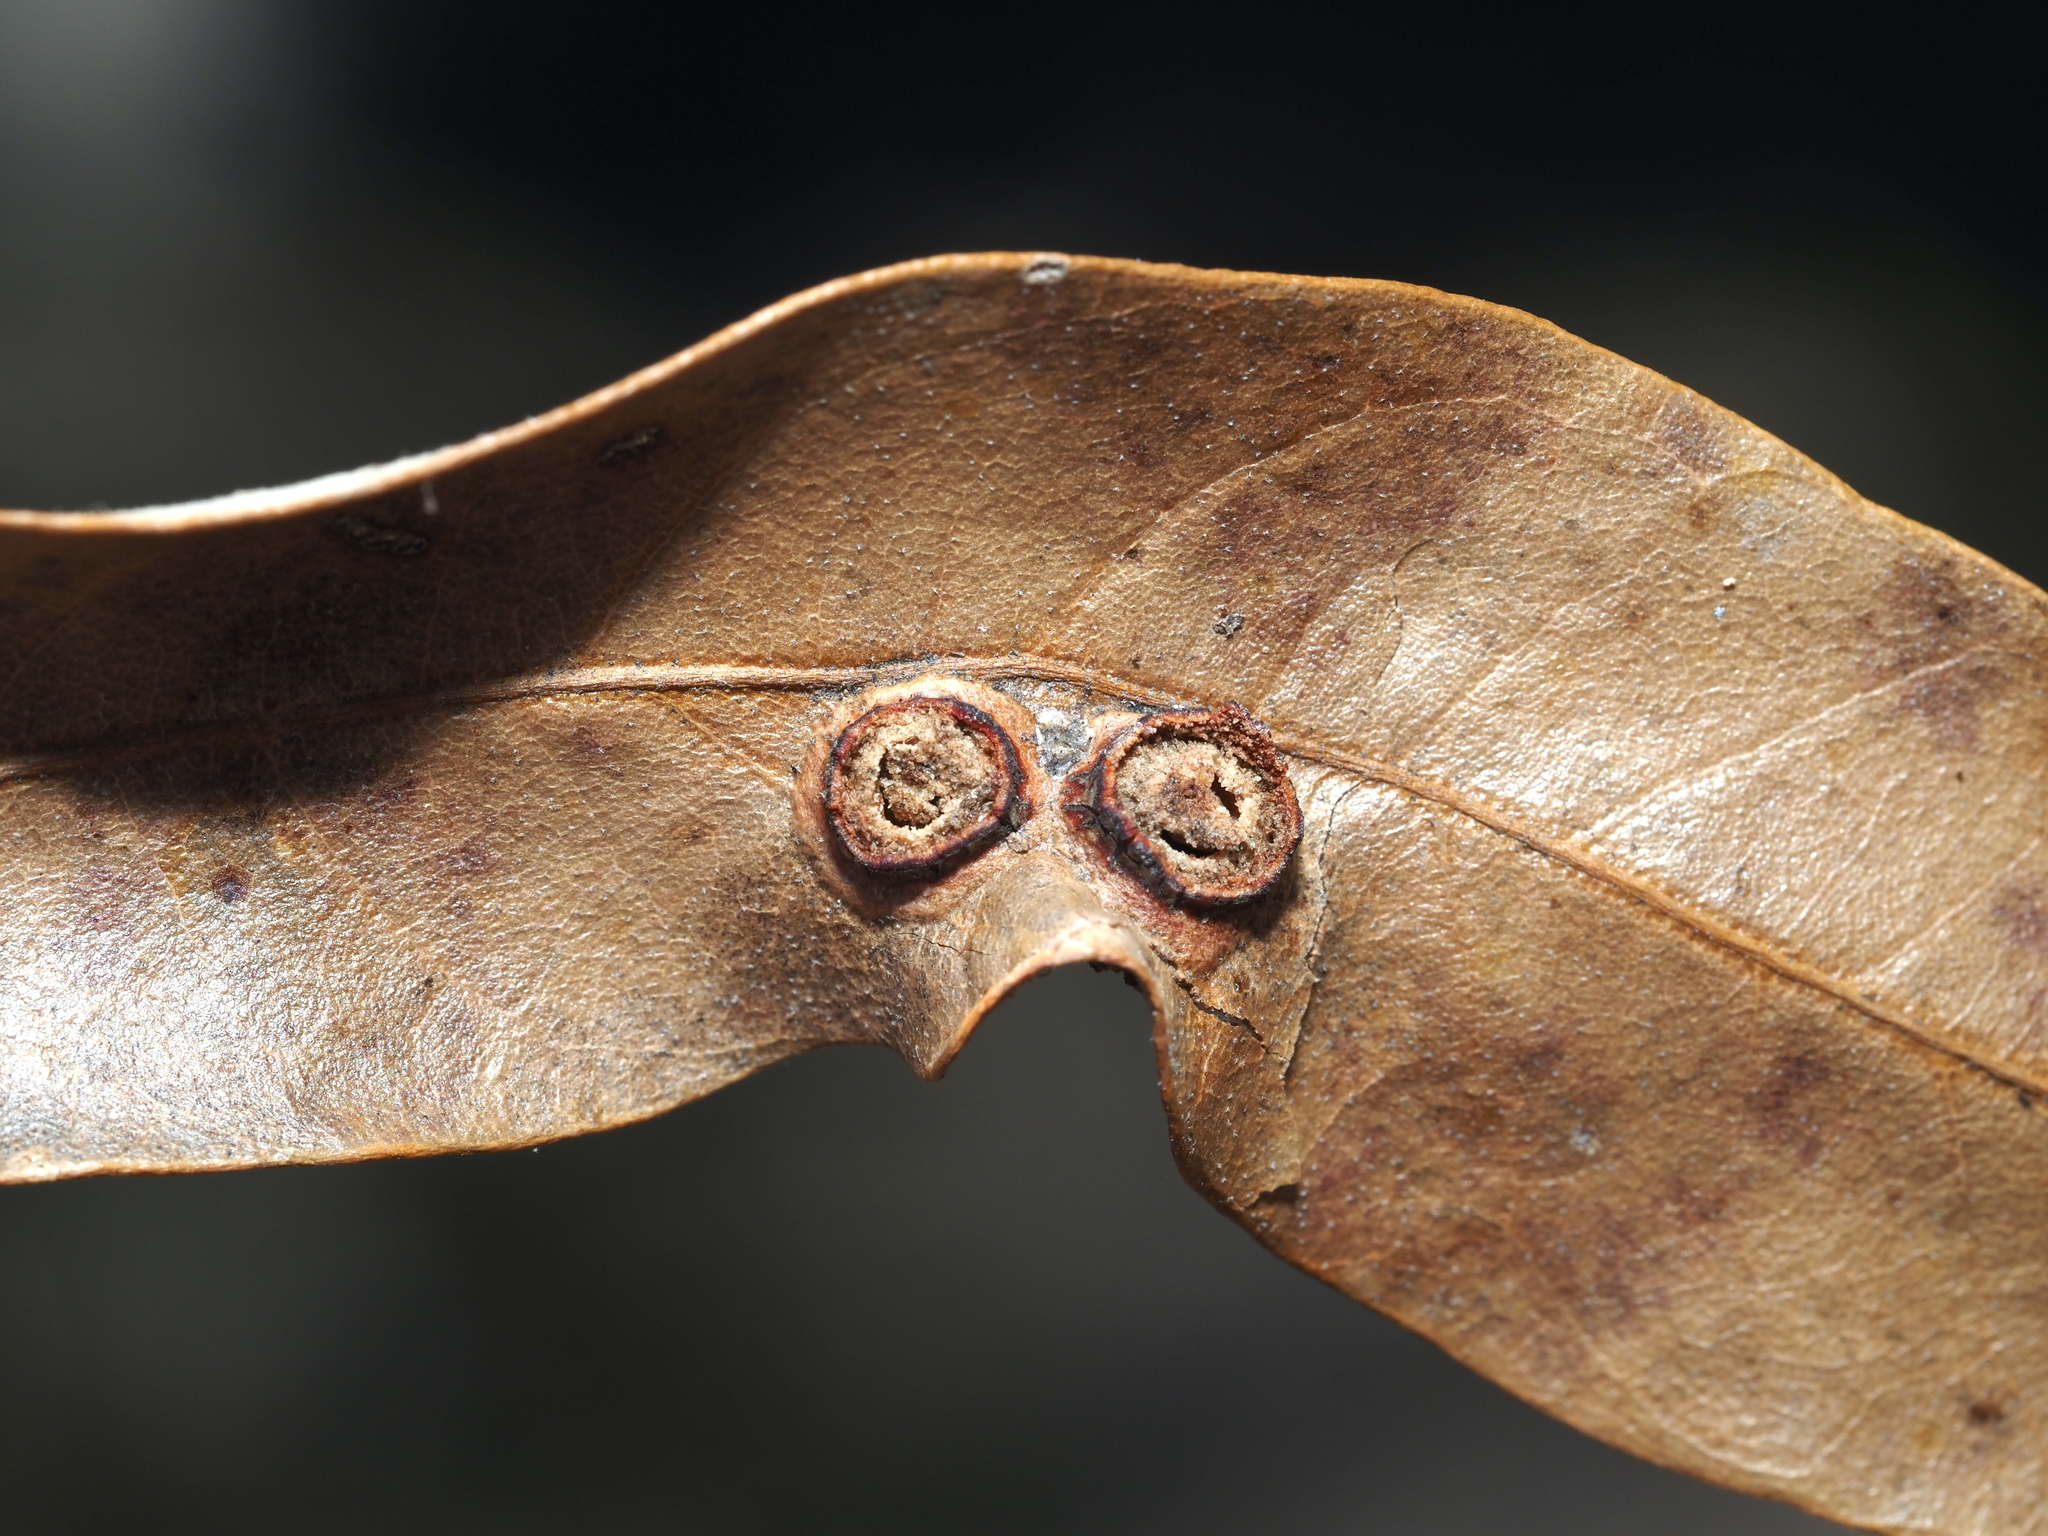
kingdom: Animalia
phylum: Arthropoda
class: Insecta
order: Diptera
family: Cecidomyiidae
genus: Polystepha
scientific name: Polystepha symmetrica
